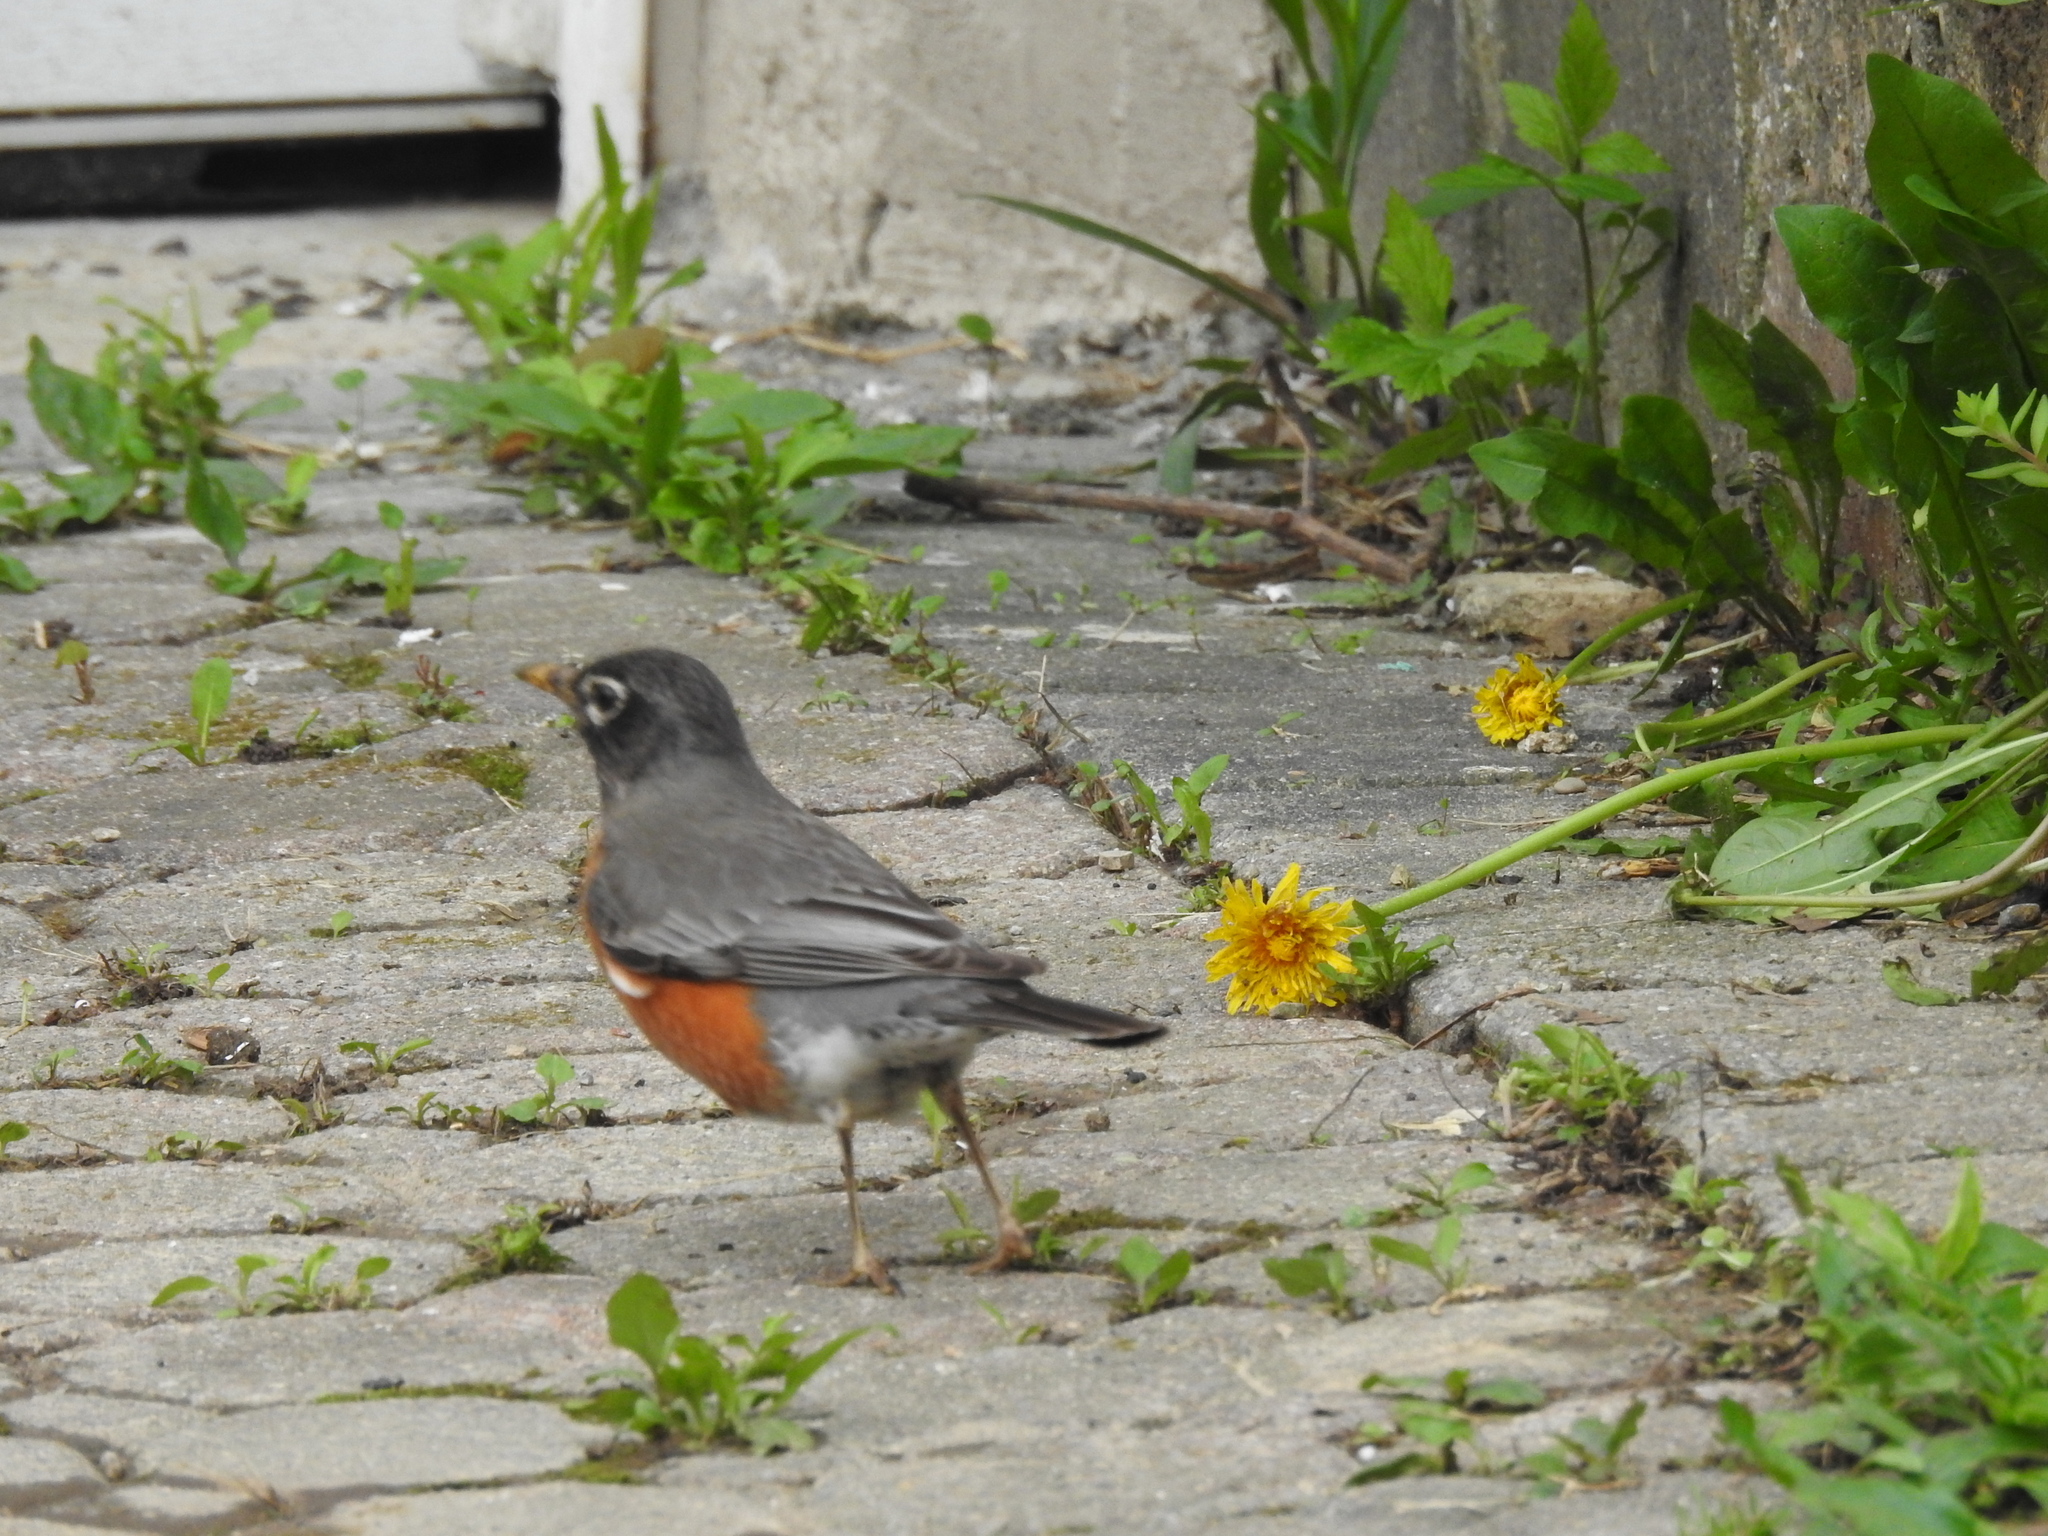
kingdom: Animalia
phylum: Chordata
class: Aves
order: Passeriformes
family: Turdidae
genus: Turdus
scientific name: Turdus migratorius
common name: American robin
